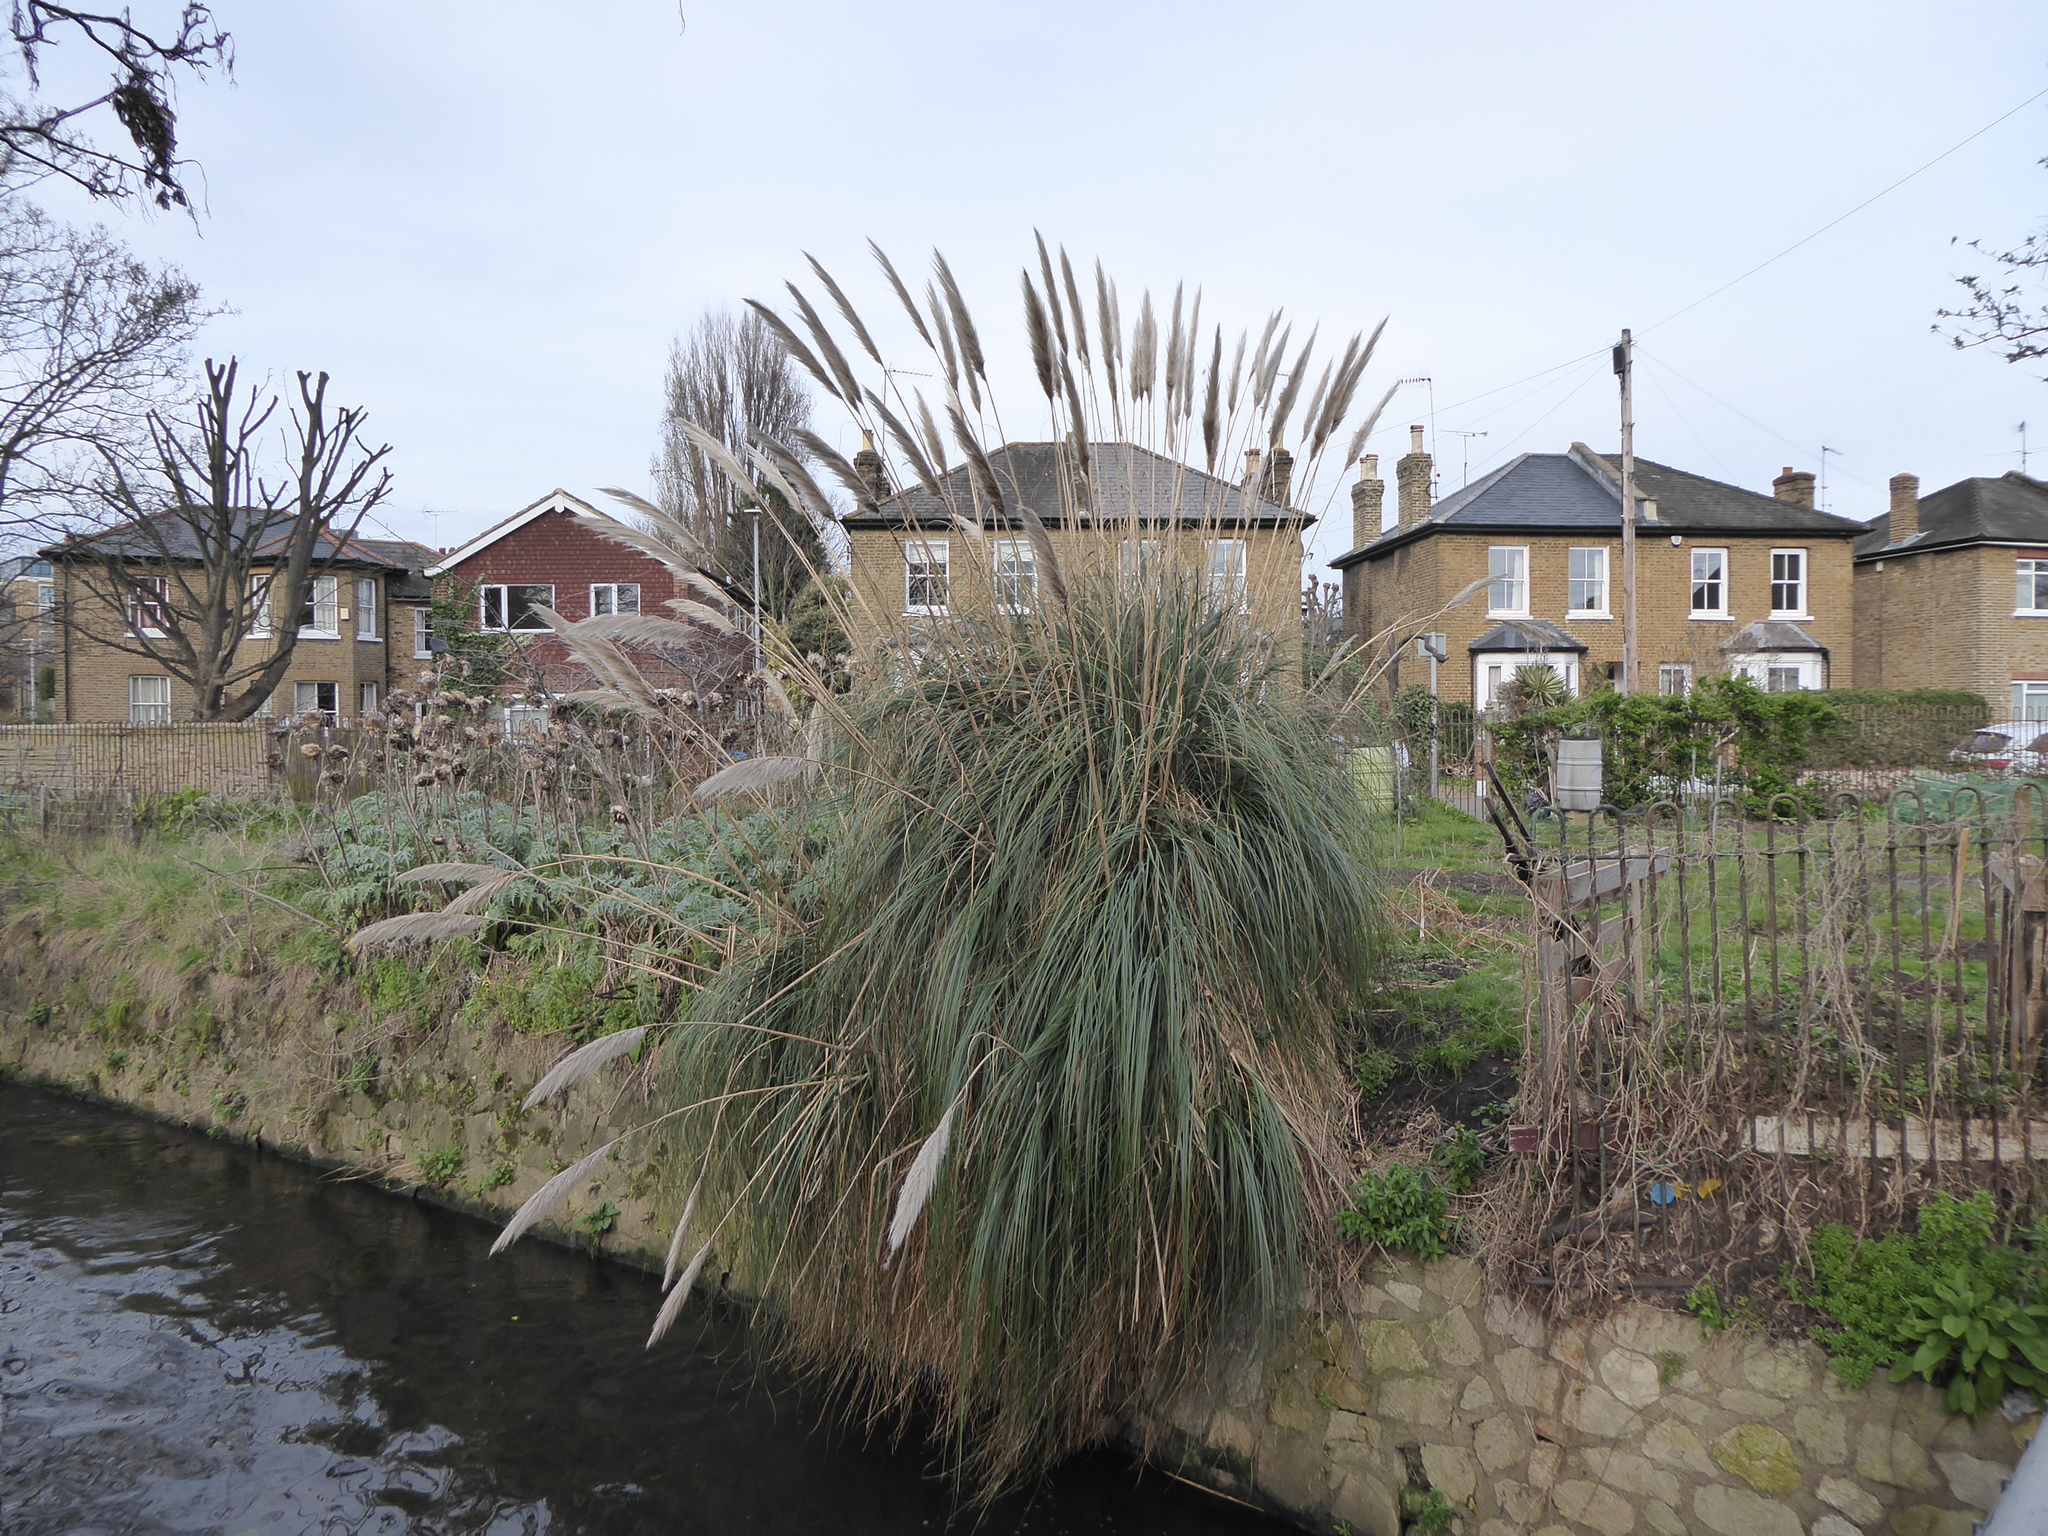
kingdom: Plantae
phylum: Tracheophyta
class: Liliopsida
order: Poales
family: Poaceae
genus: Cortaderia
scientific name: Cortaderia selloana
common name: Uruguayan pampas grass
